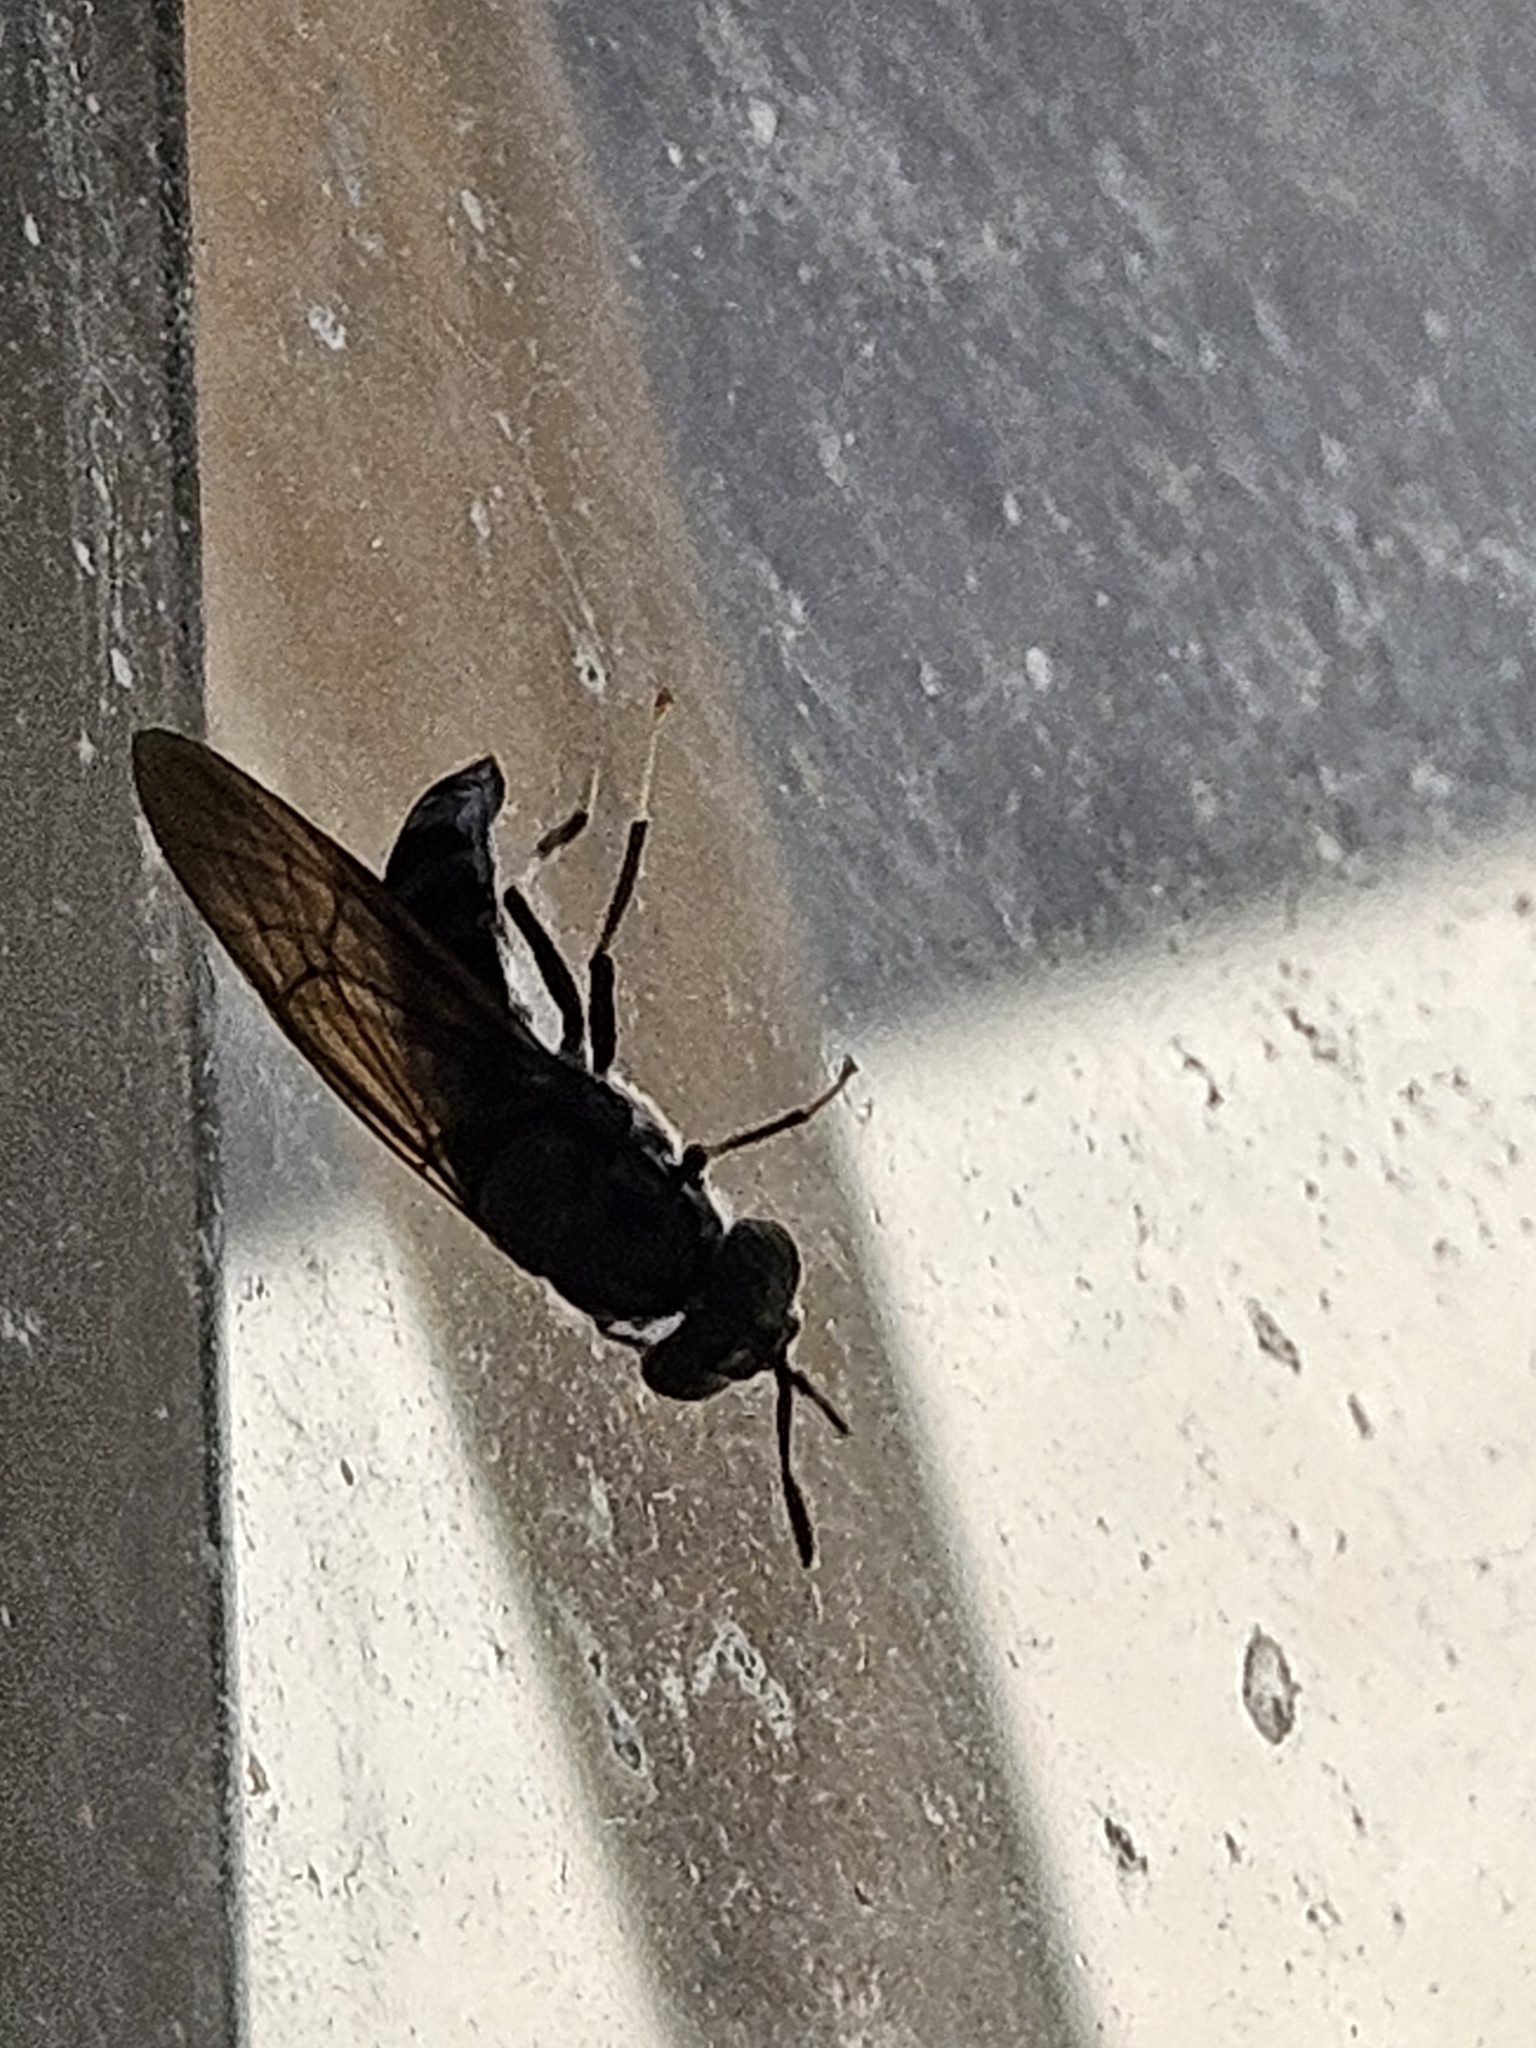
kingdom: Animalia
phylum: Arthropoda
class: Insecta
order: Diptera
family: Stratiomyidae
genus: Hermetia
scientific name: Hermetia illucens
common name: Black soldier fly
